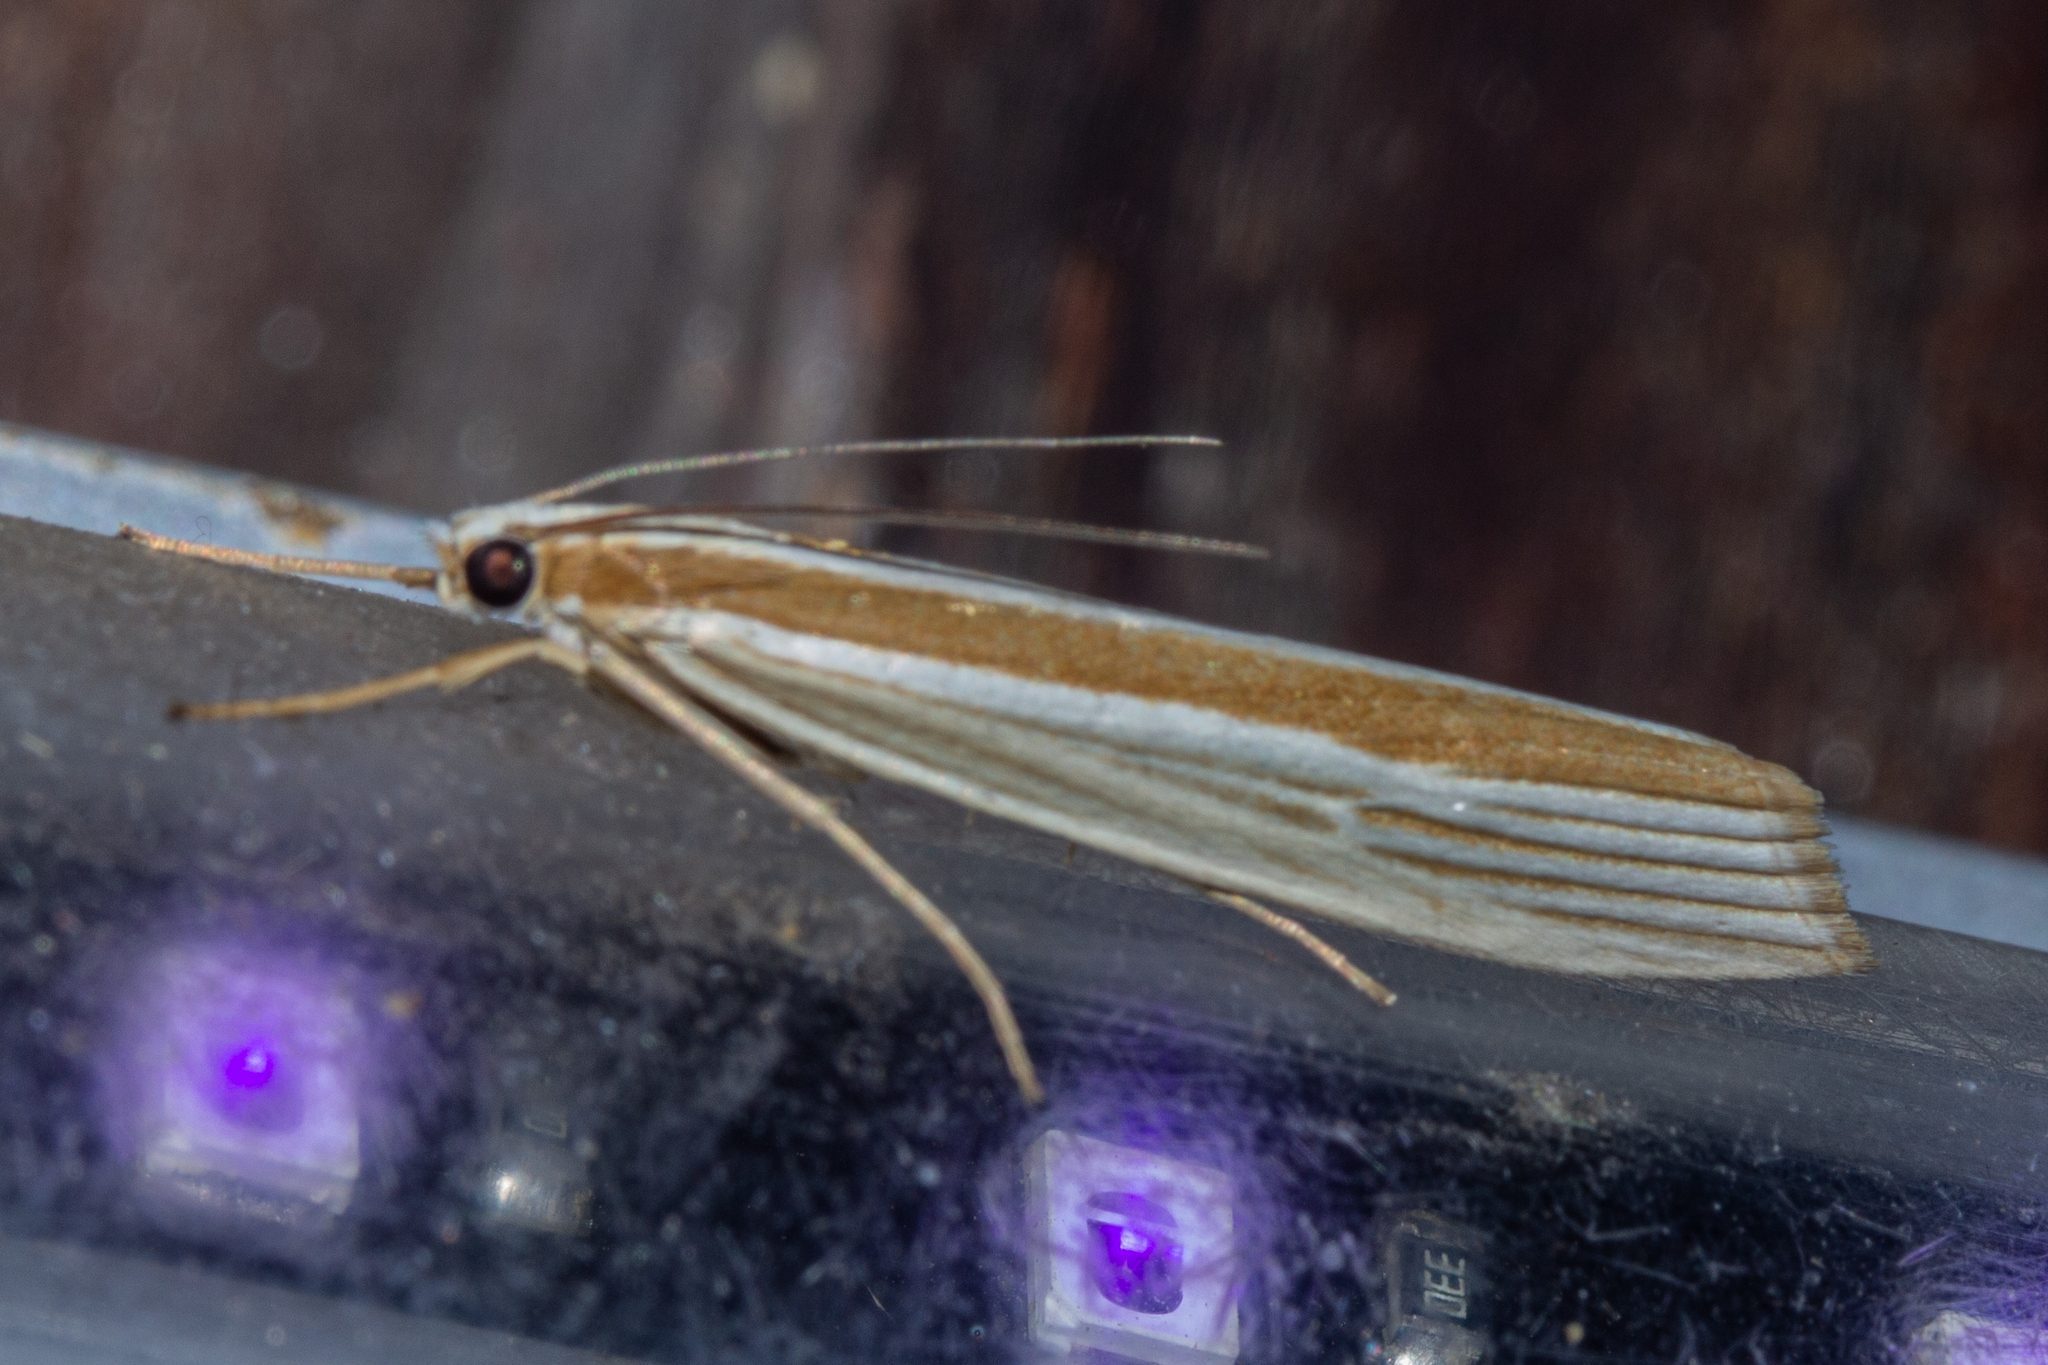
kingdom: Animalia
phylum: Arthropoda
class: Insecta
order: Lepidoptera
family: Crambidae
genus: Orocrambus
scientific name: Orocrambus angustipennis
